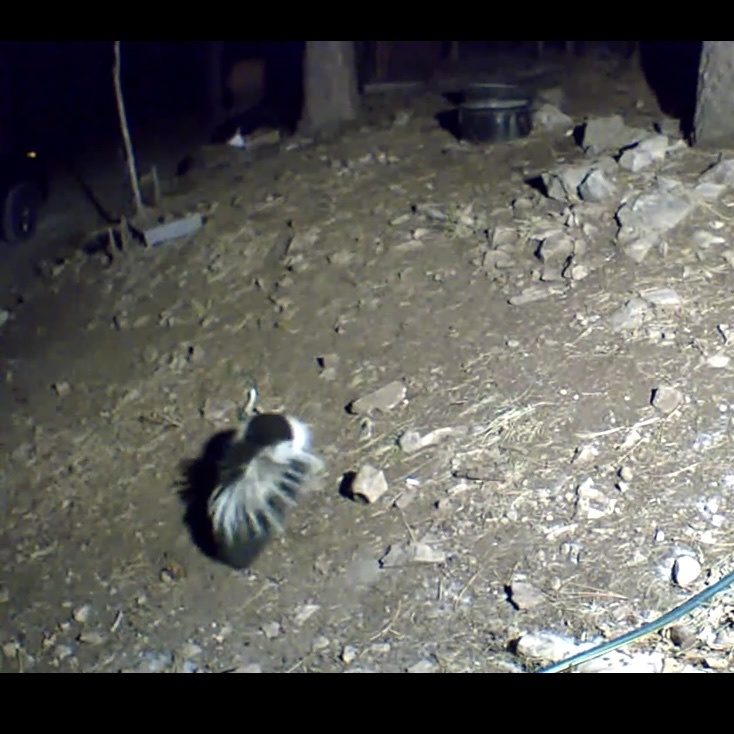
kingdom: Animalia
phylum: Chordata
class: Mammalia
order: Carnivora
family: Mephitidae
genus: Mephitis
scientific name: Mephitis mephitis
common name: Striped skunk
